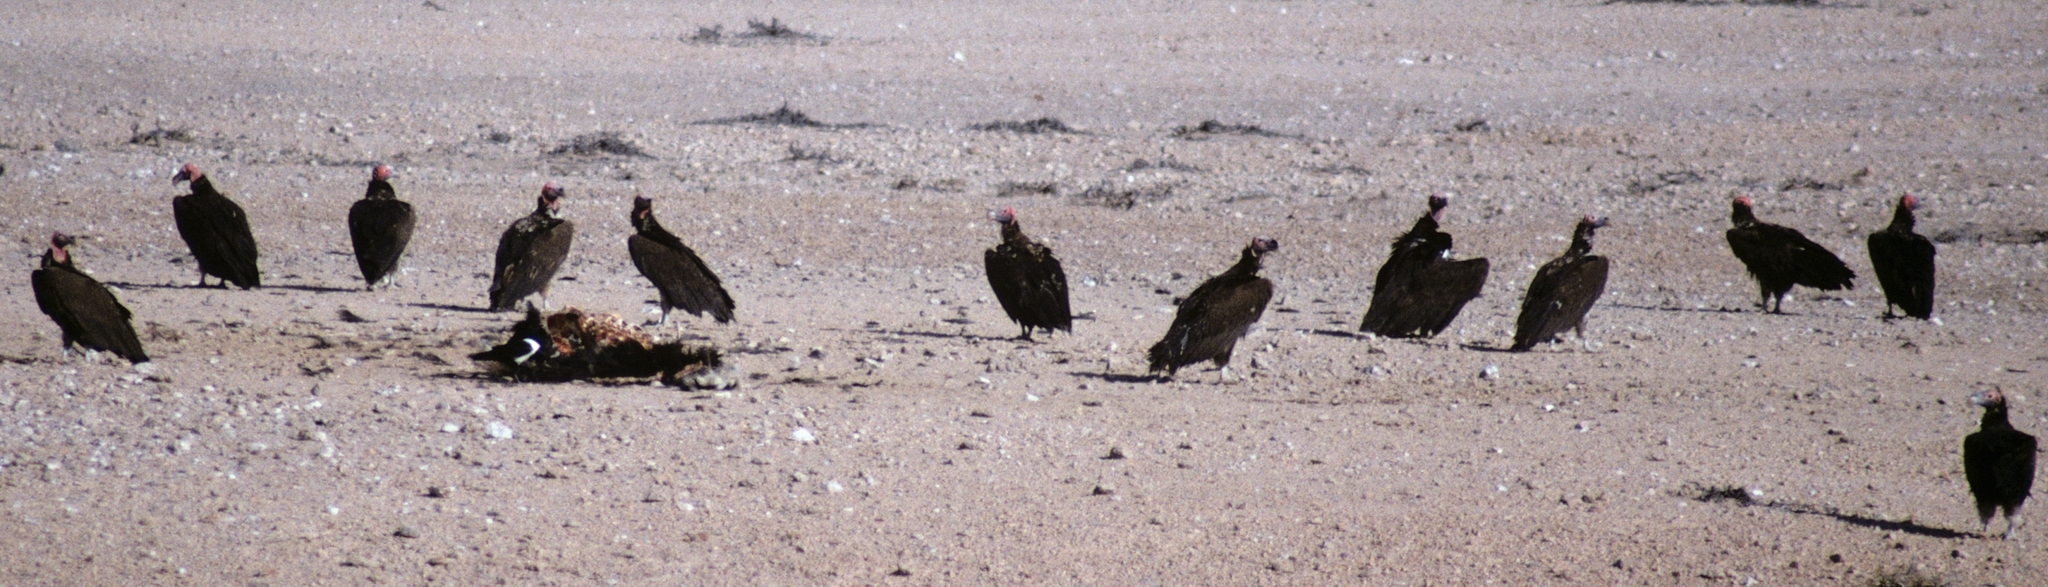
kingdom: Animalia
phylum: Chordata
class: Aves
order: Accipitriformes
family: Accipitridae
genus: Torgos
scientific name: Torgos tracheliotos
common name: Lappet-faced vulture
